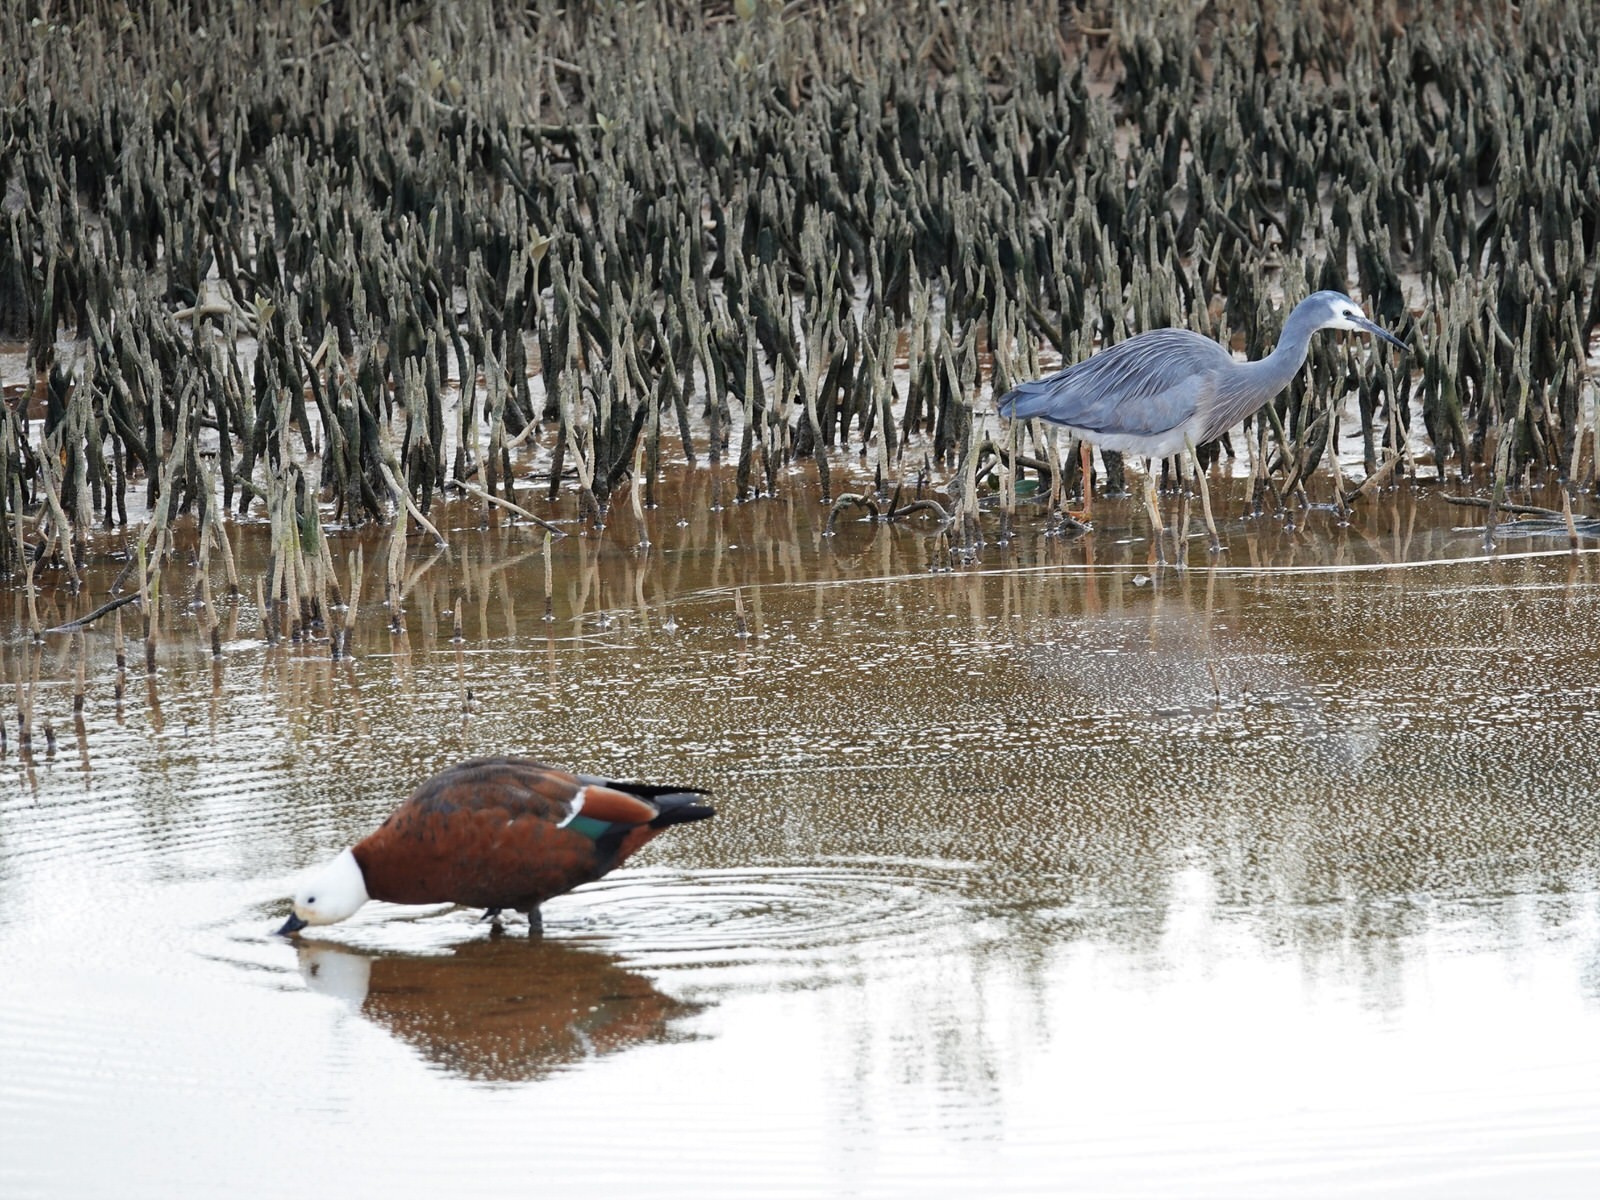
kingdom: Animalia
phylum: Chordata
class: Aves
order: Anseriformes
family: Anatidae
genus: Tadorna
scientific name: Tadorna variegata
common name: Paradise shelduck
